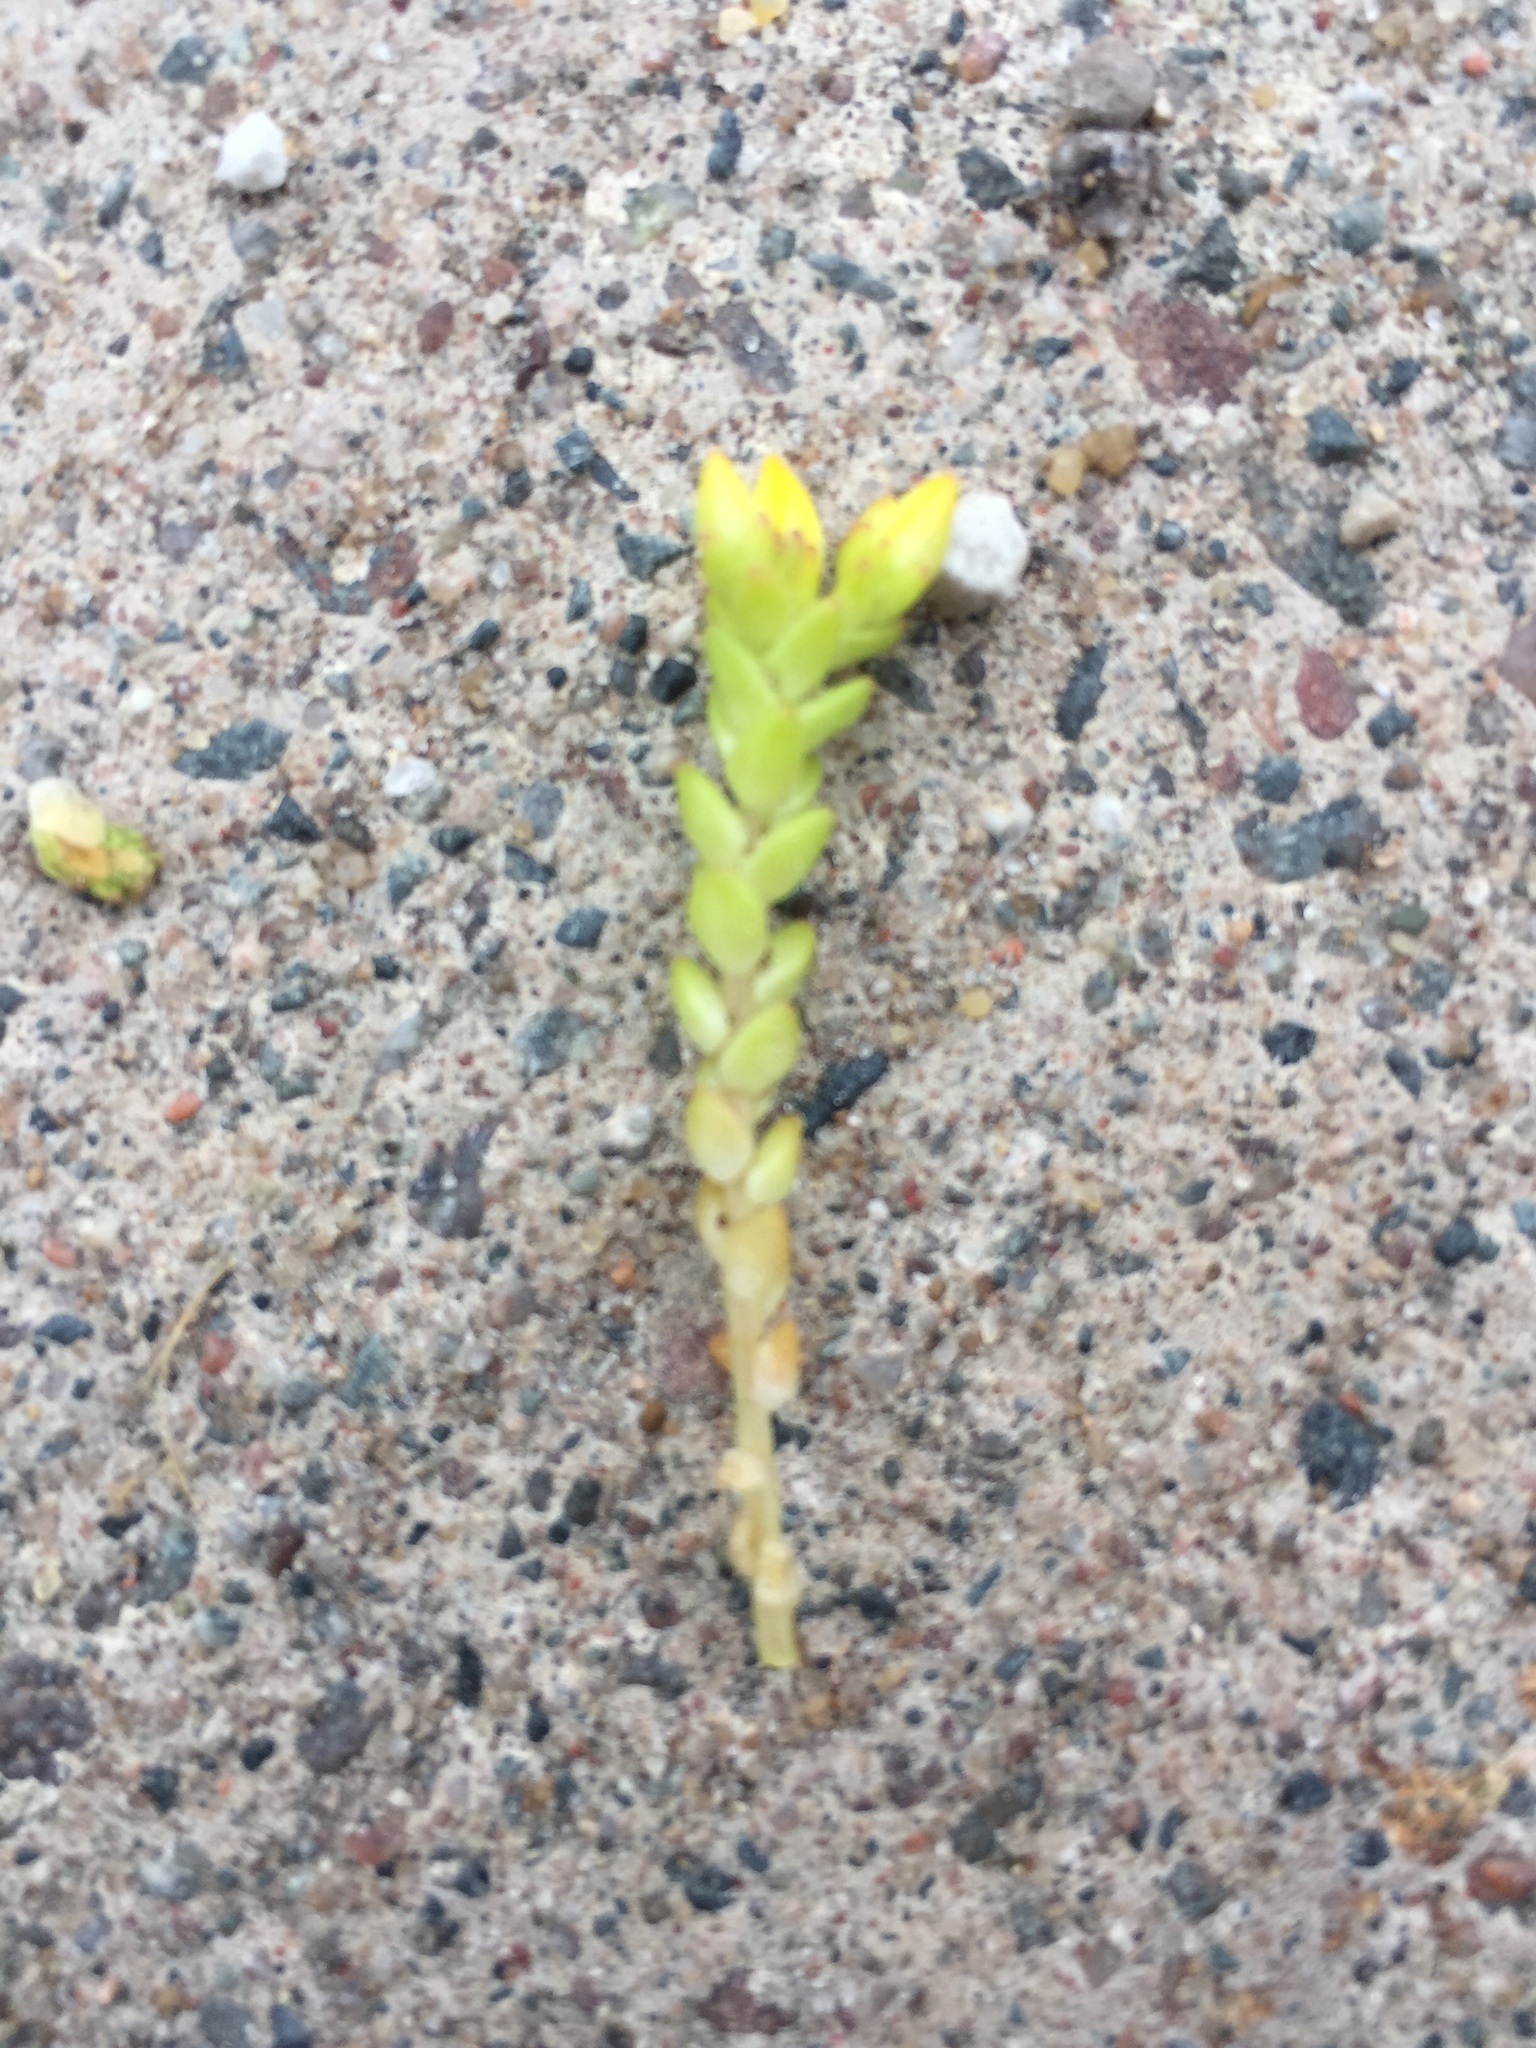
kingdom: Plantae
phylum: Tracheophyta
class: Magnoliopsida
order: Saxifragales
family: Crassulaceae
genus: Sedum
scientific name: Sedum acre
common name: Biting stonecrop
